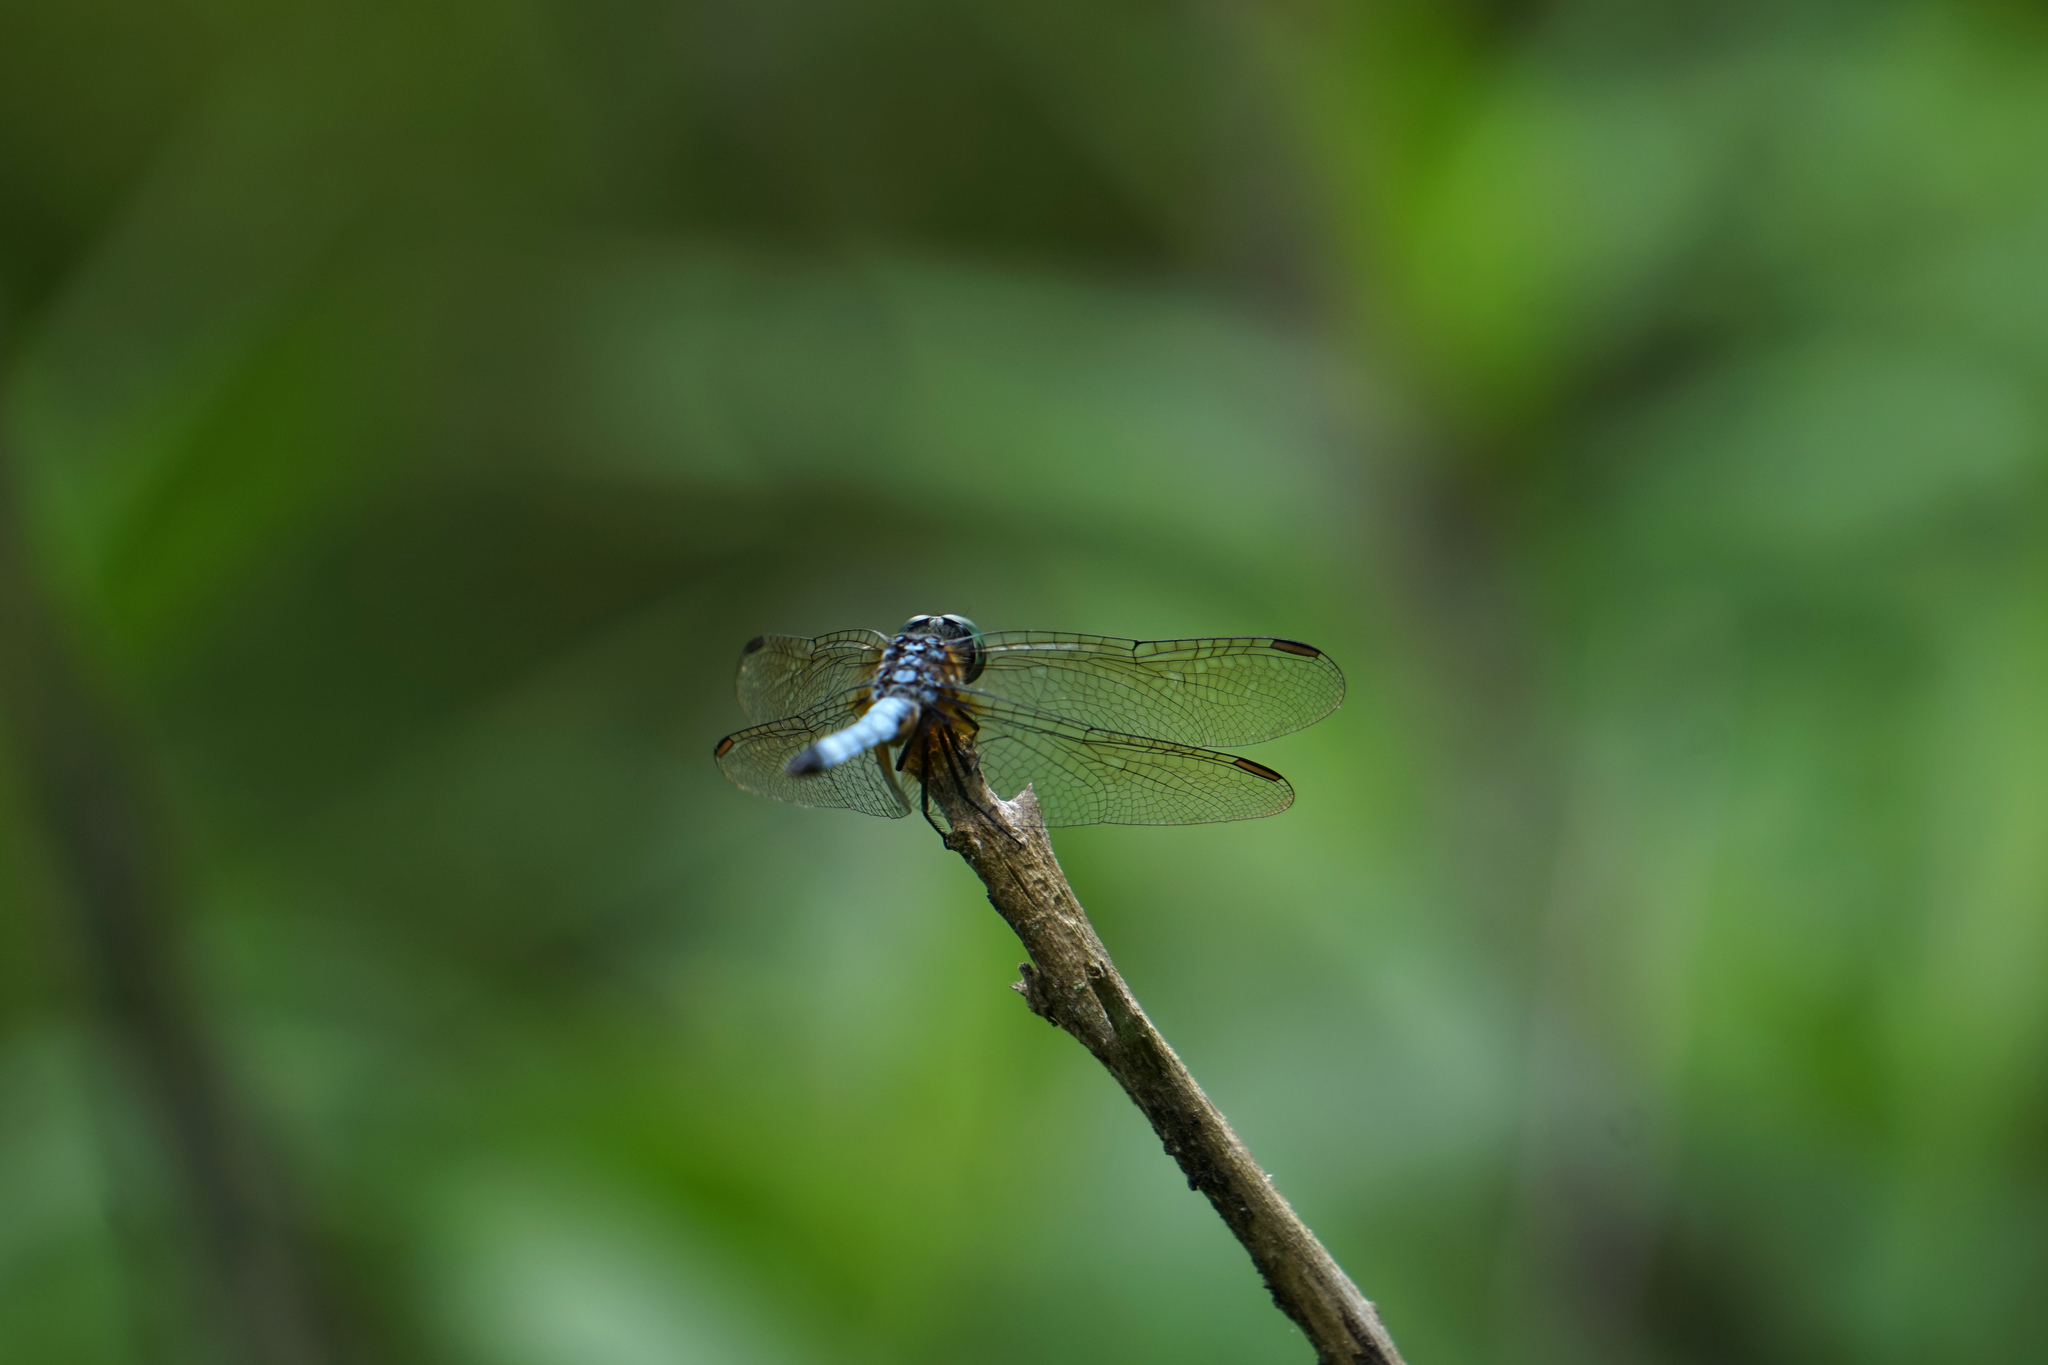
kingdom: Animalia
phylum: Arthropoda
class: Insecta
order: Odonata
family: Libellulidae
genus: Pachydiplax
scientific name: Pachydiplax longipennis
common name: Blue dasher
